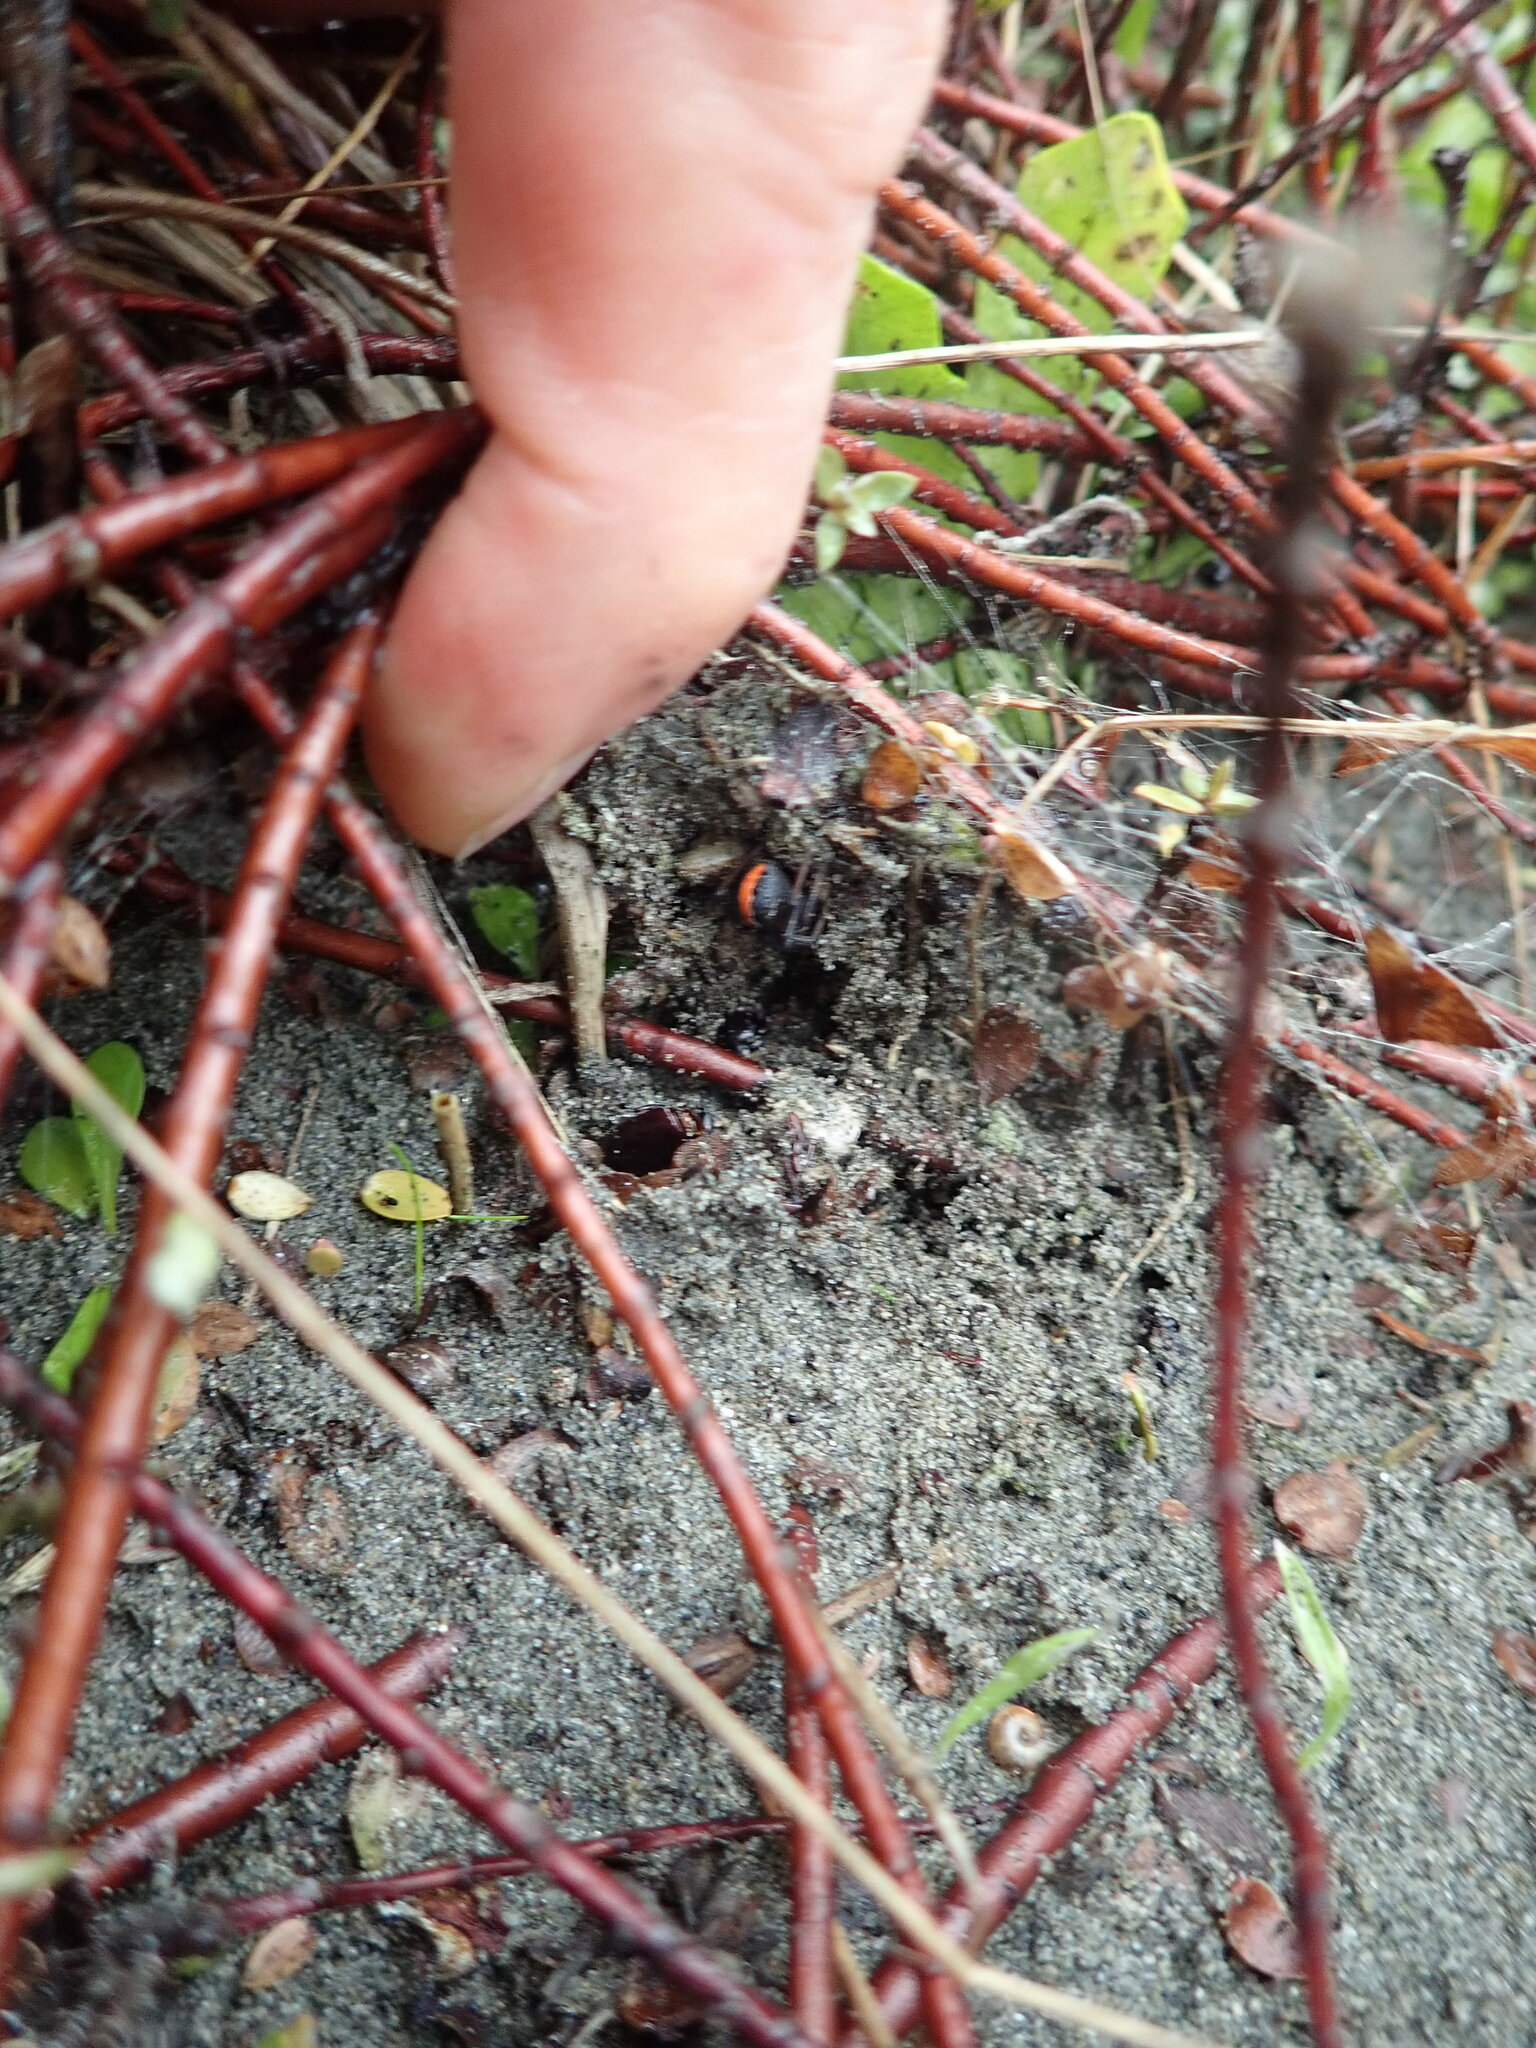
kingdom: Plantae
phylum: Tracheophyta
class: Magnoliopsida
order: Malvales
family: Thymelaeaceae
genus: Pimelea
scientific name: Pimelea villosa
